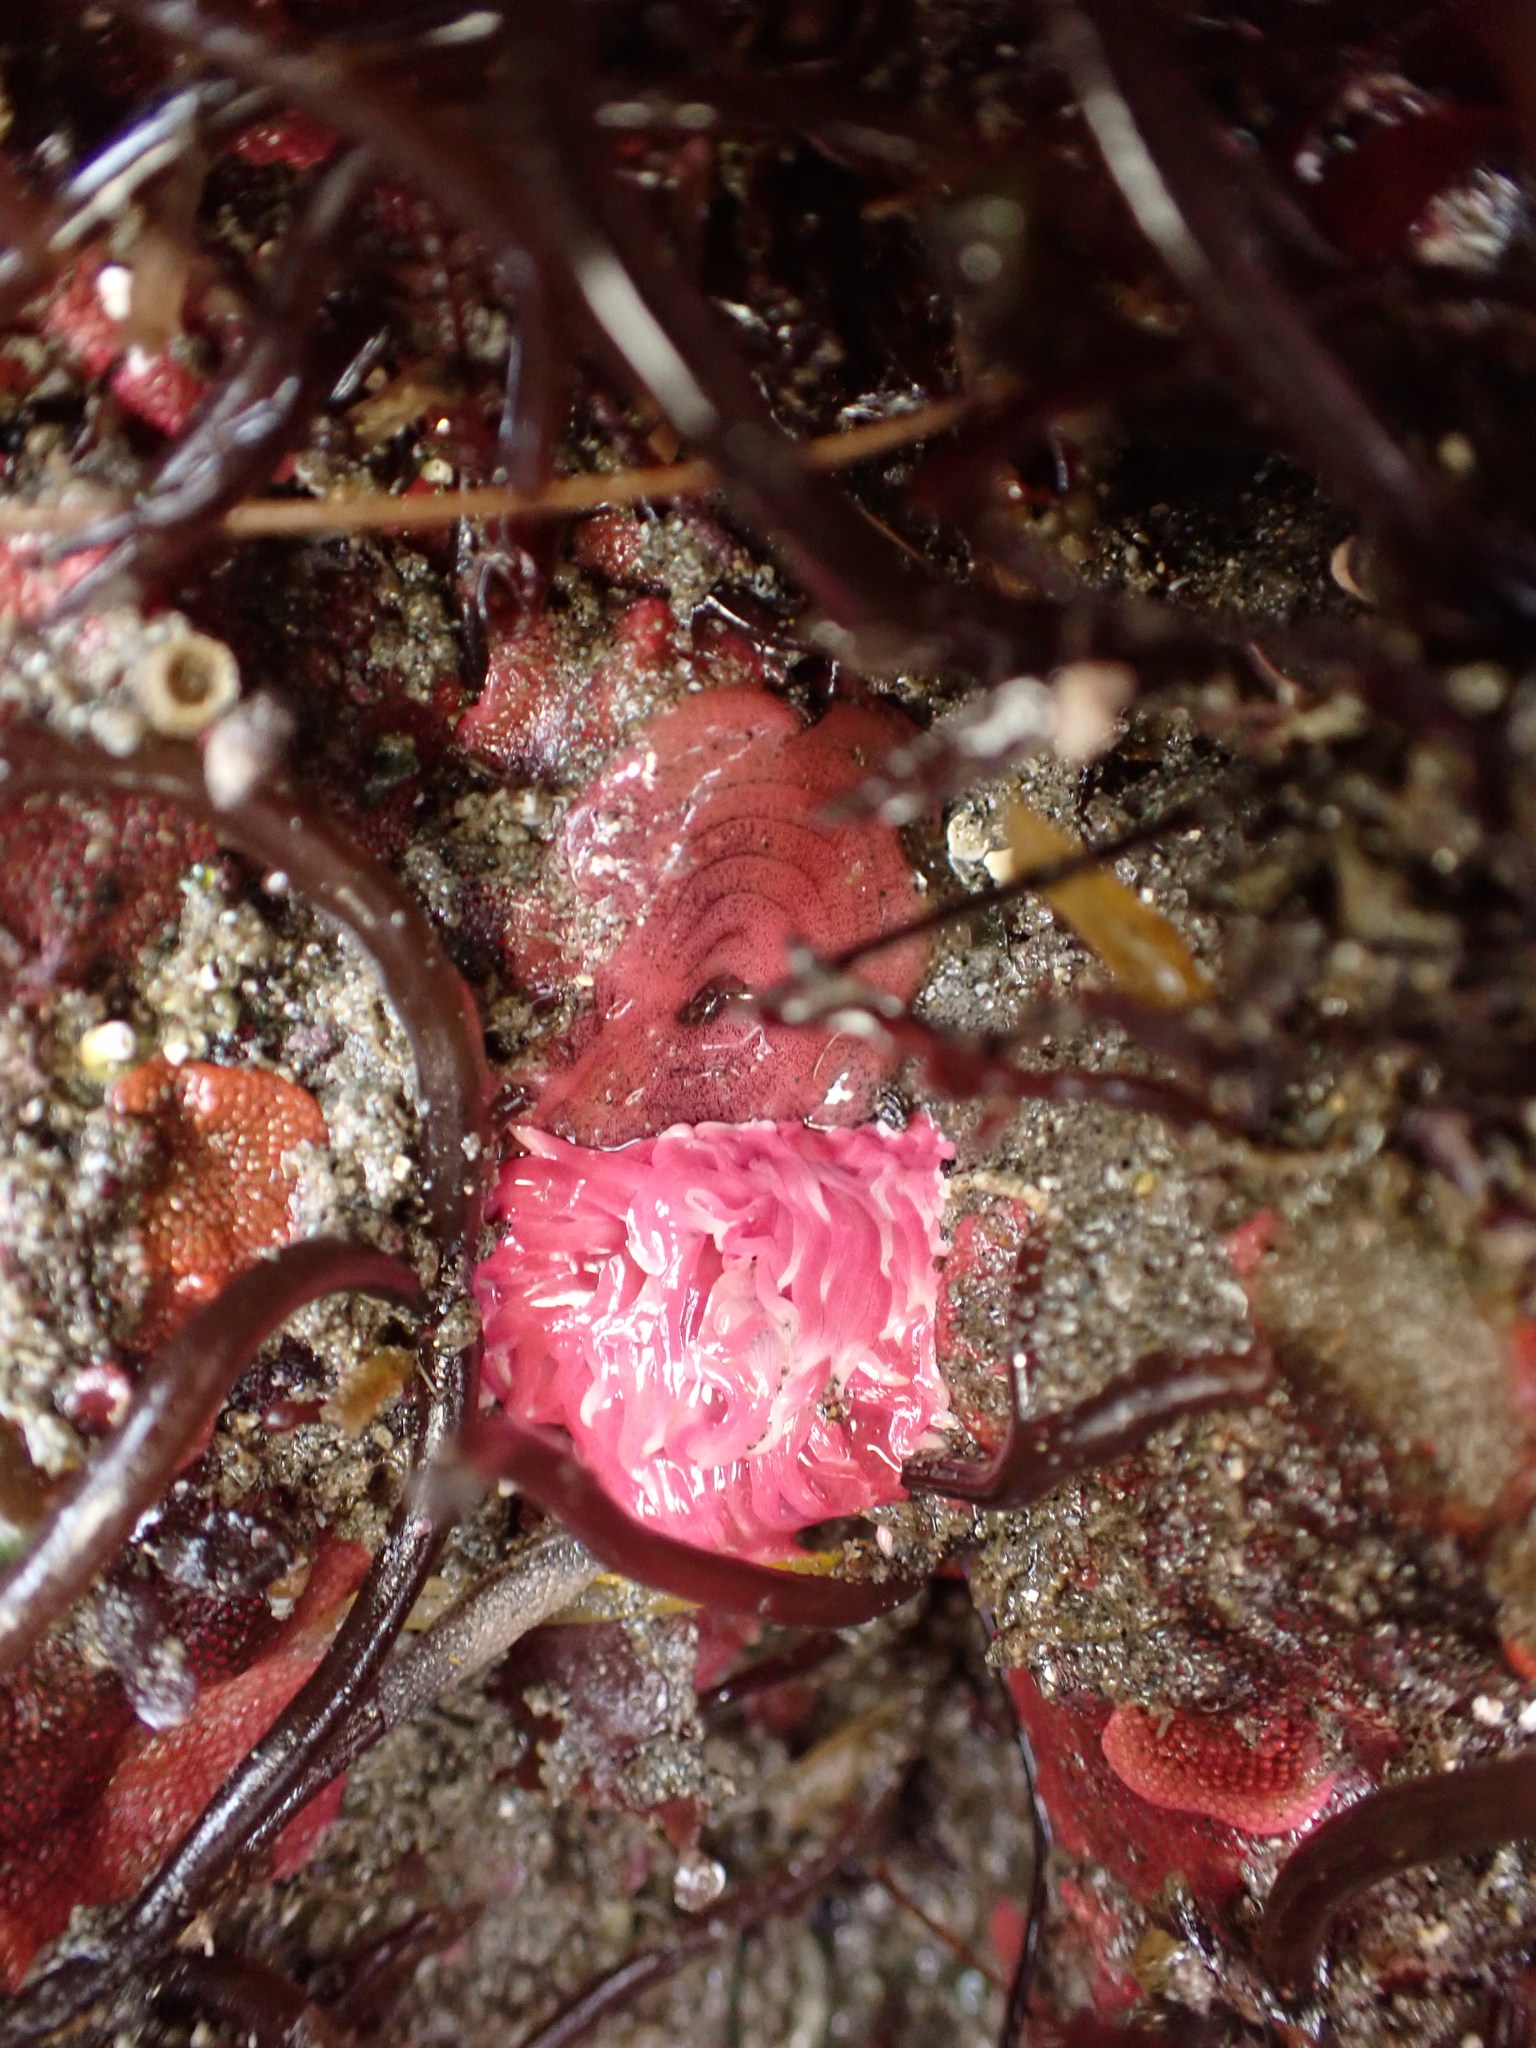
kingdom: Animalia
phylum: Mollusca
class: Gastropoda
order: Nudibranchia
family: Goniodorididae
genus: Okenia
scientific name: Okenia
